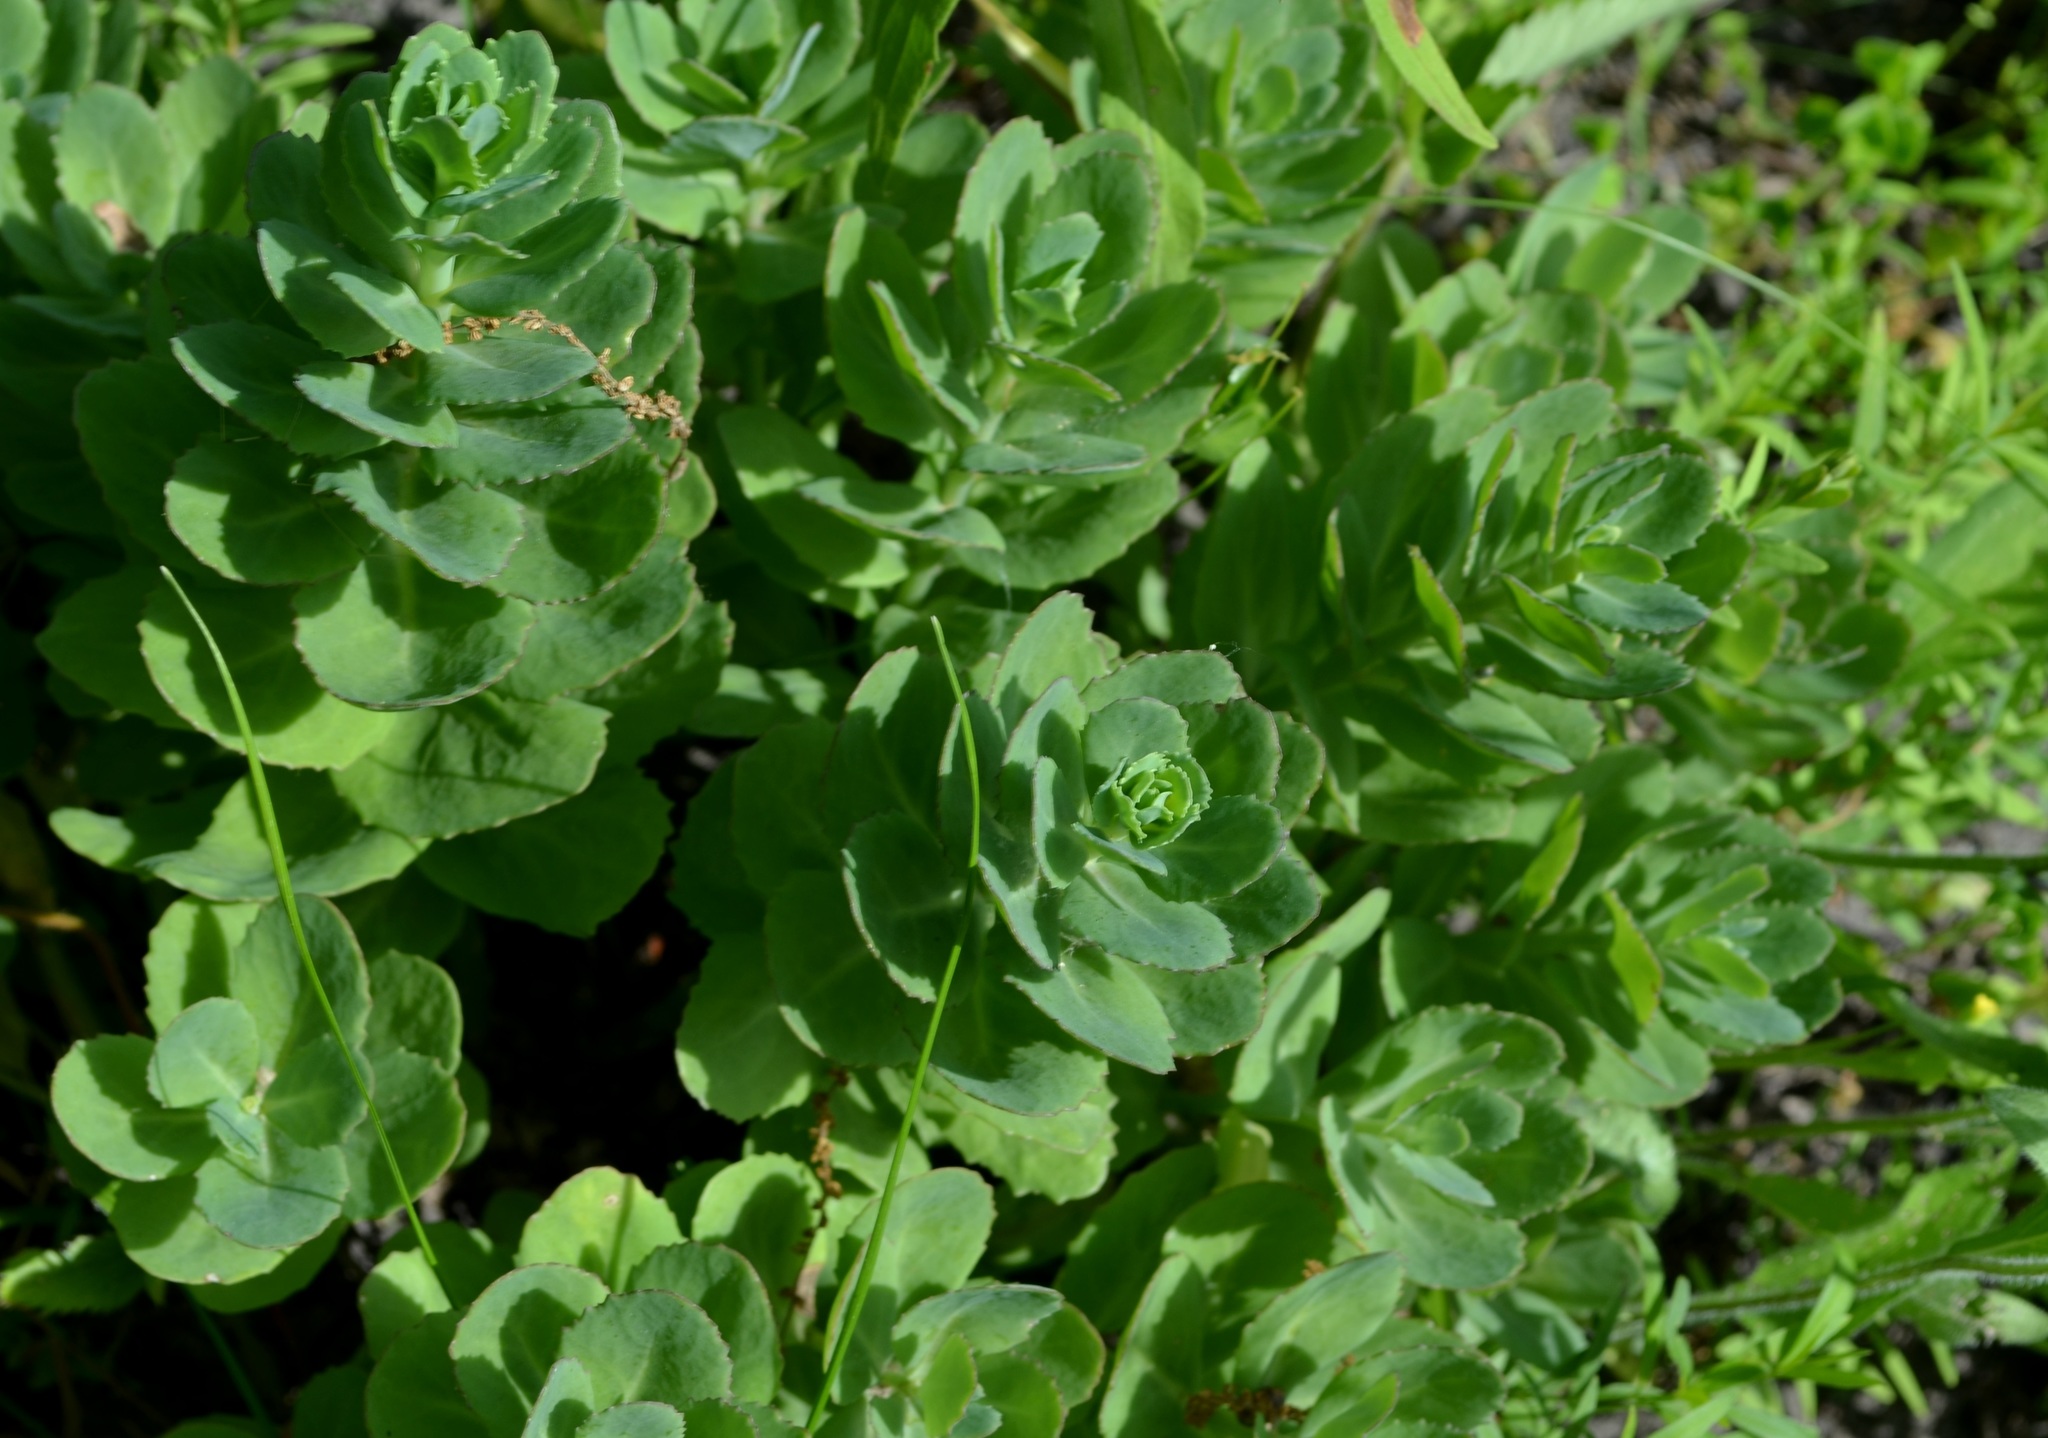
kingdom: Plantae
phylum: Tracheophyta
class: Magnoliopsida
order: Saxifragales
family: Crassulaceae
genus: Hylotelephium
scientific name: Hylotelephium telephium
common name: Live-forever
